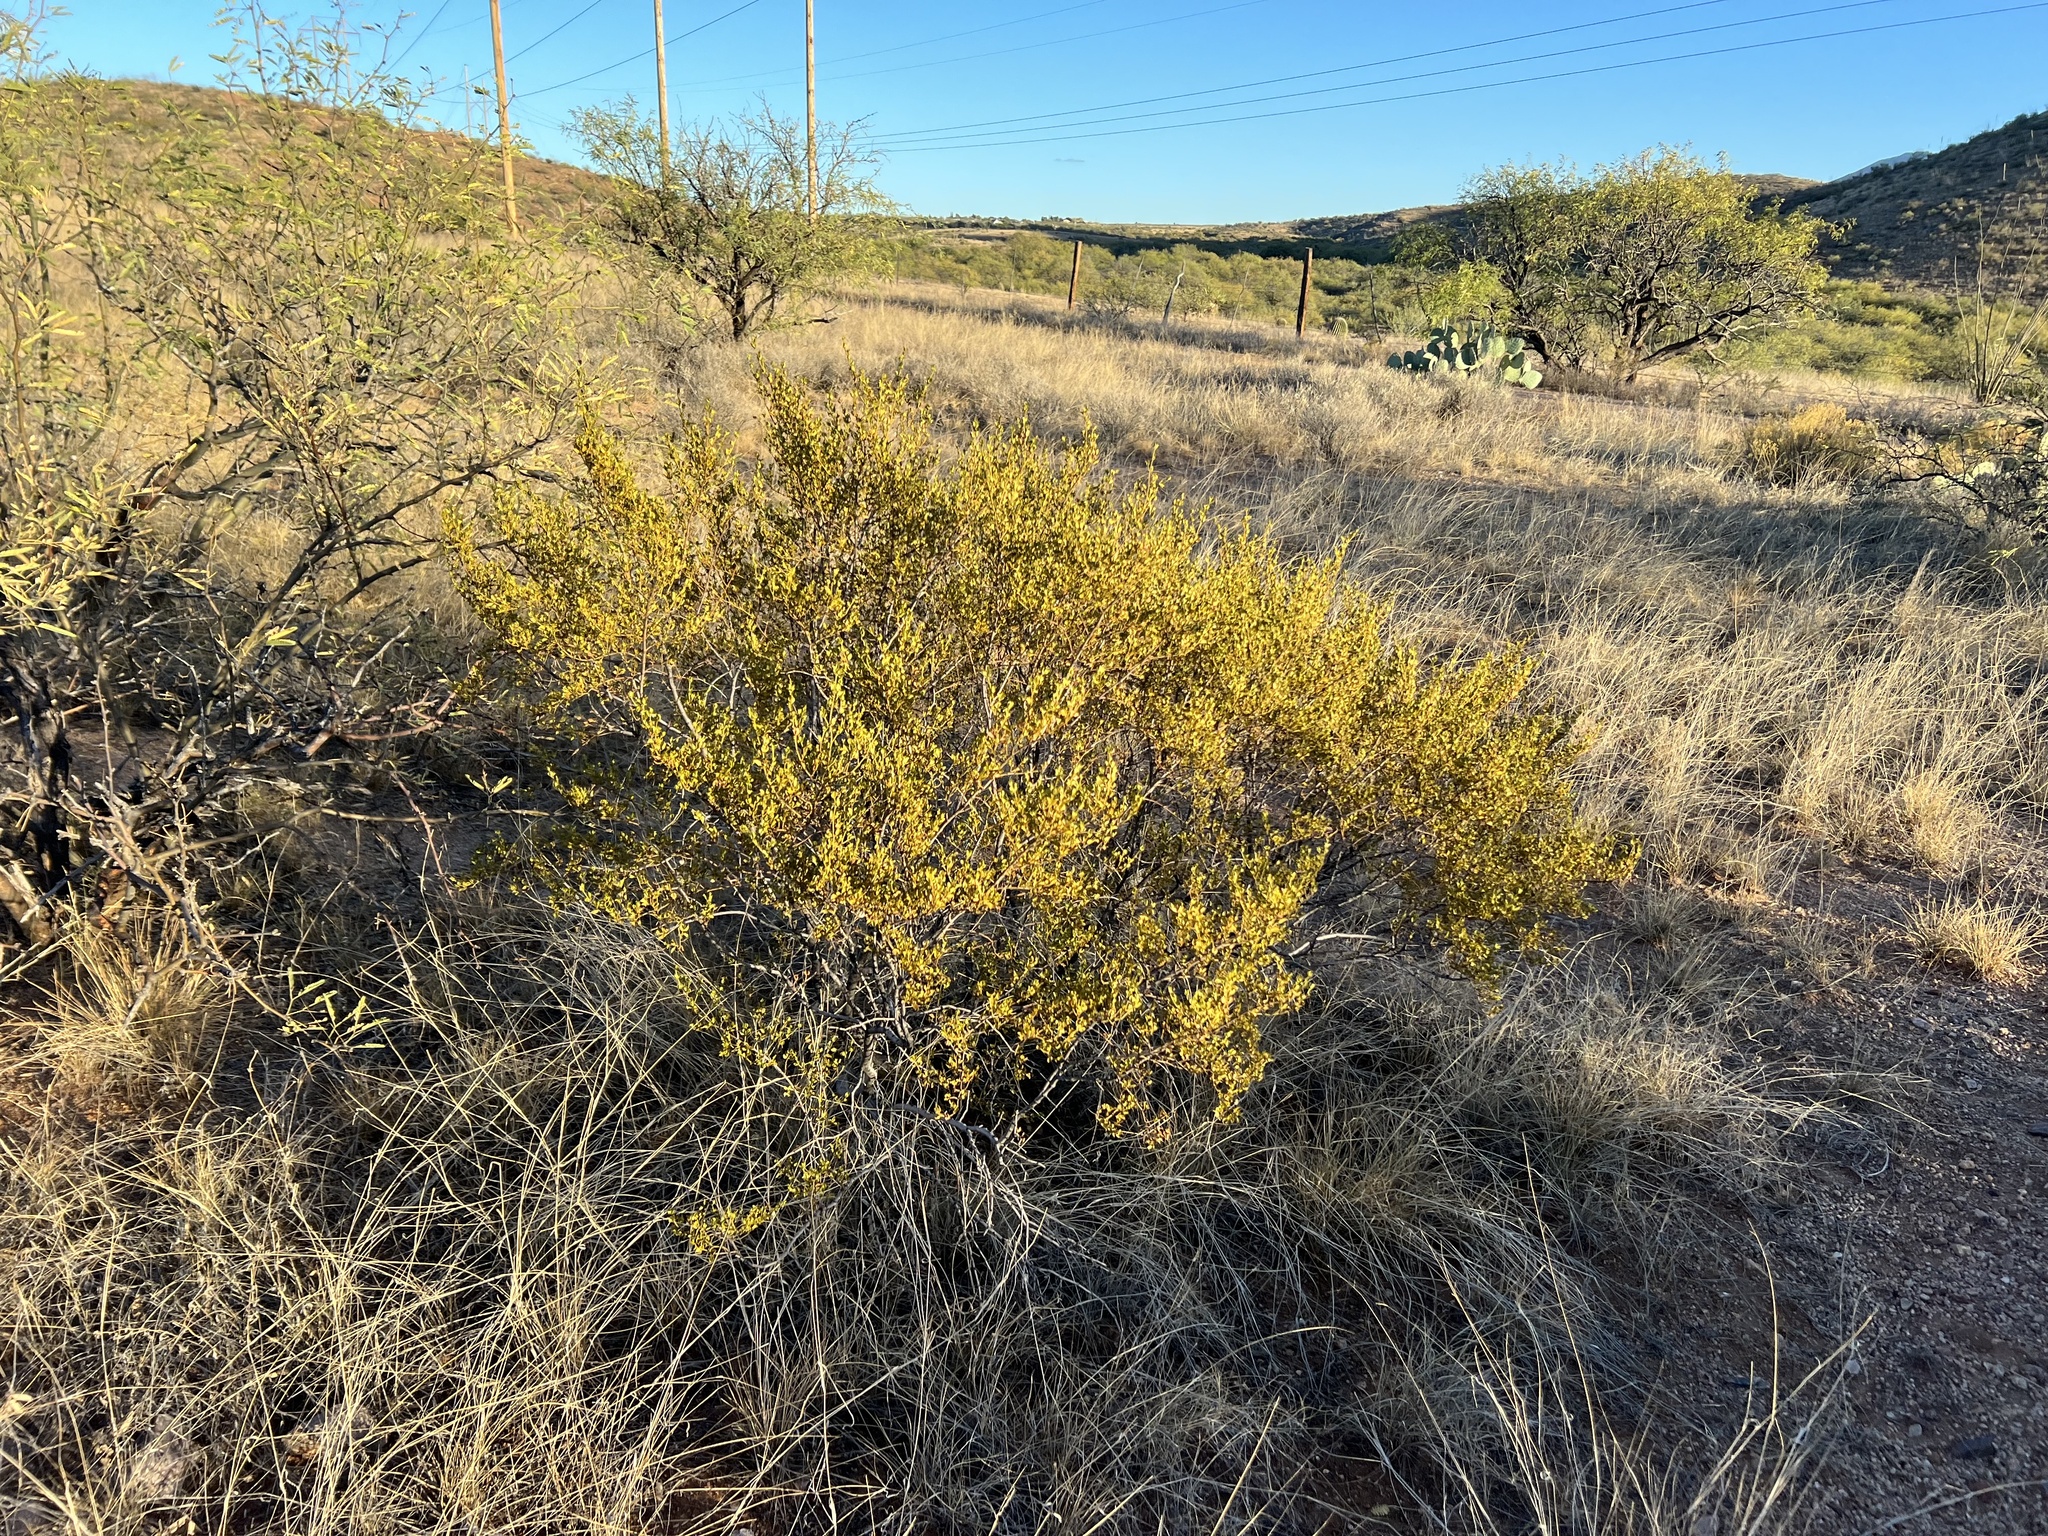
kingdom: Plantae
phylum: Tracheophyta
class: Magnoliopsida
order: Zygophyllales
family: Zygophyllaceae
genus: Larrea
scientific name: Larrea tridentata
